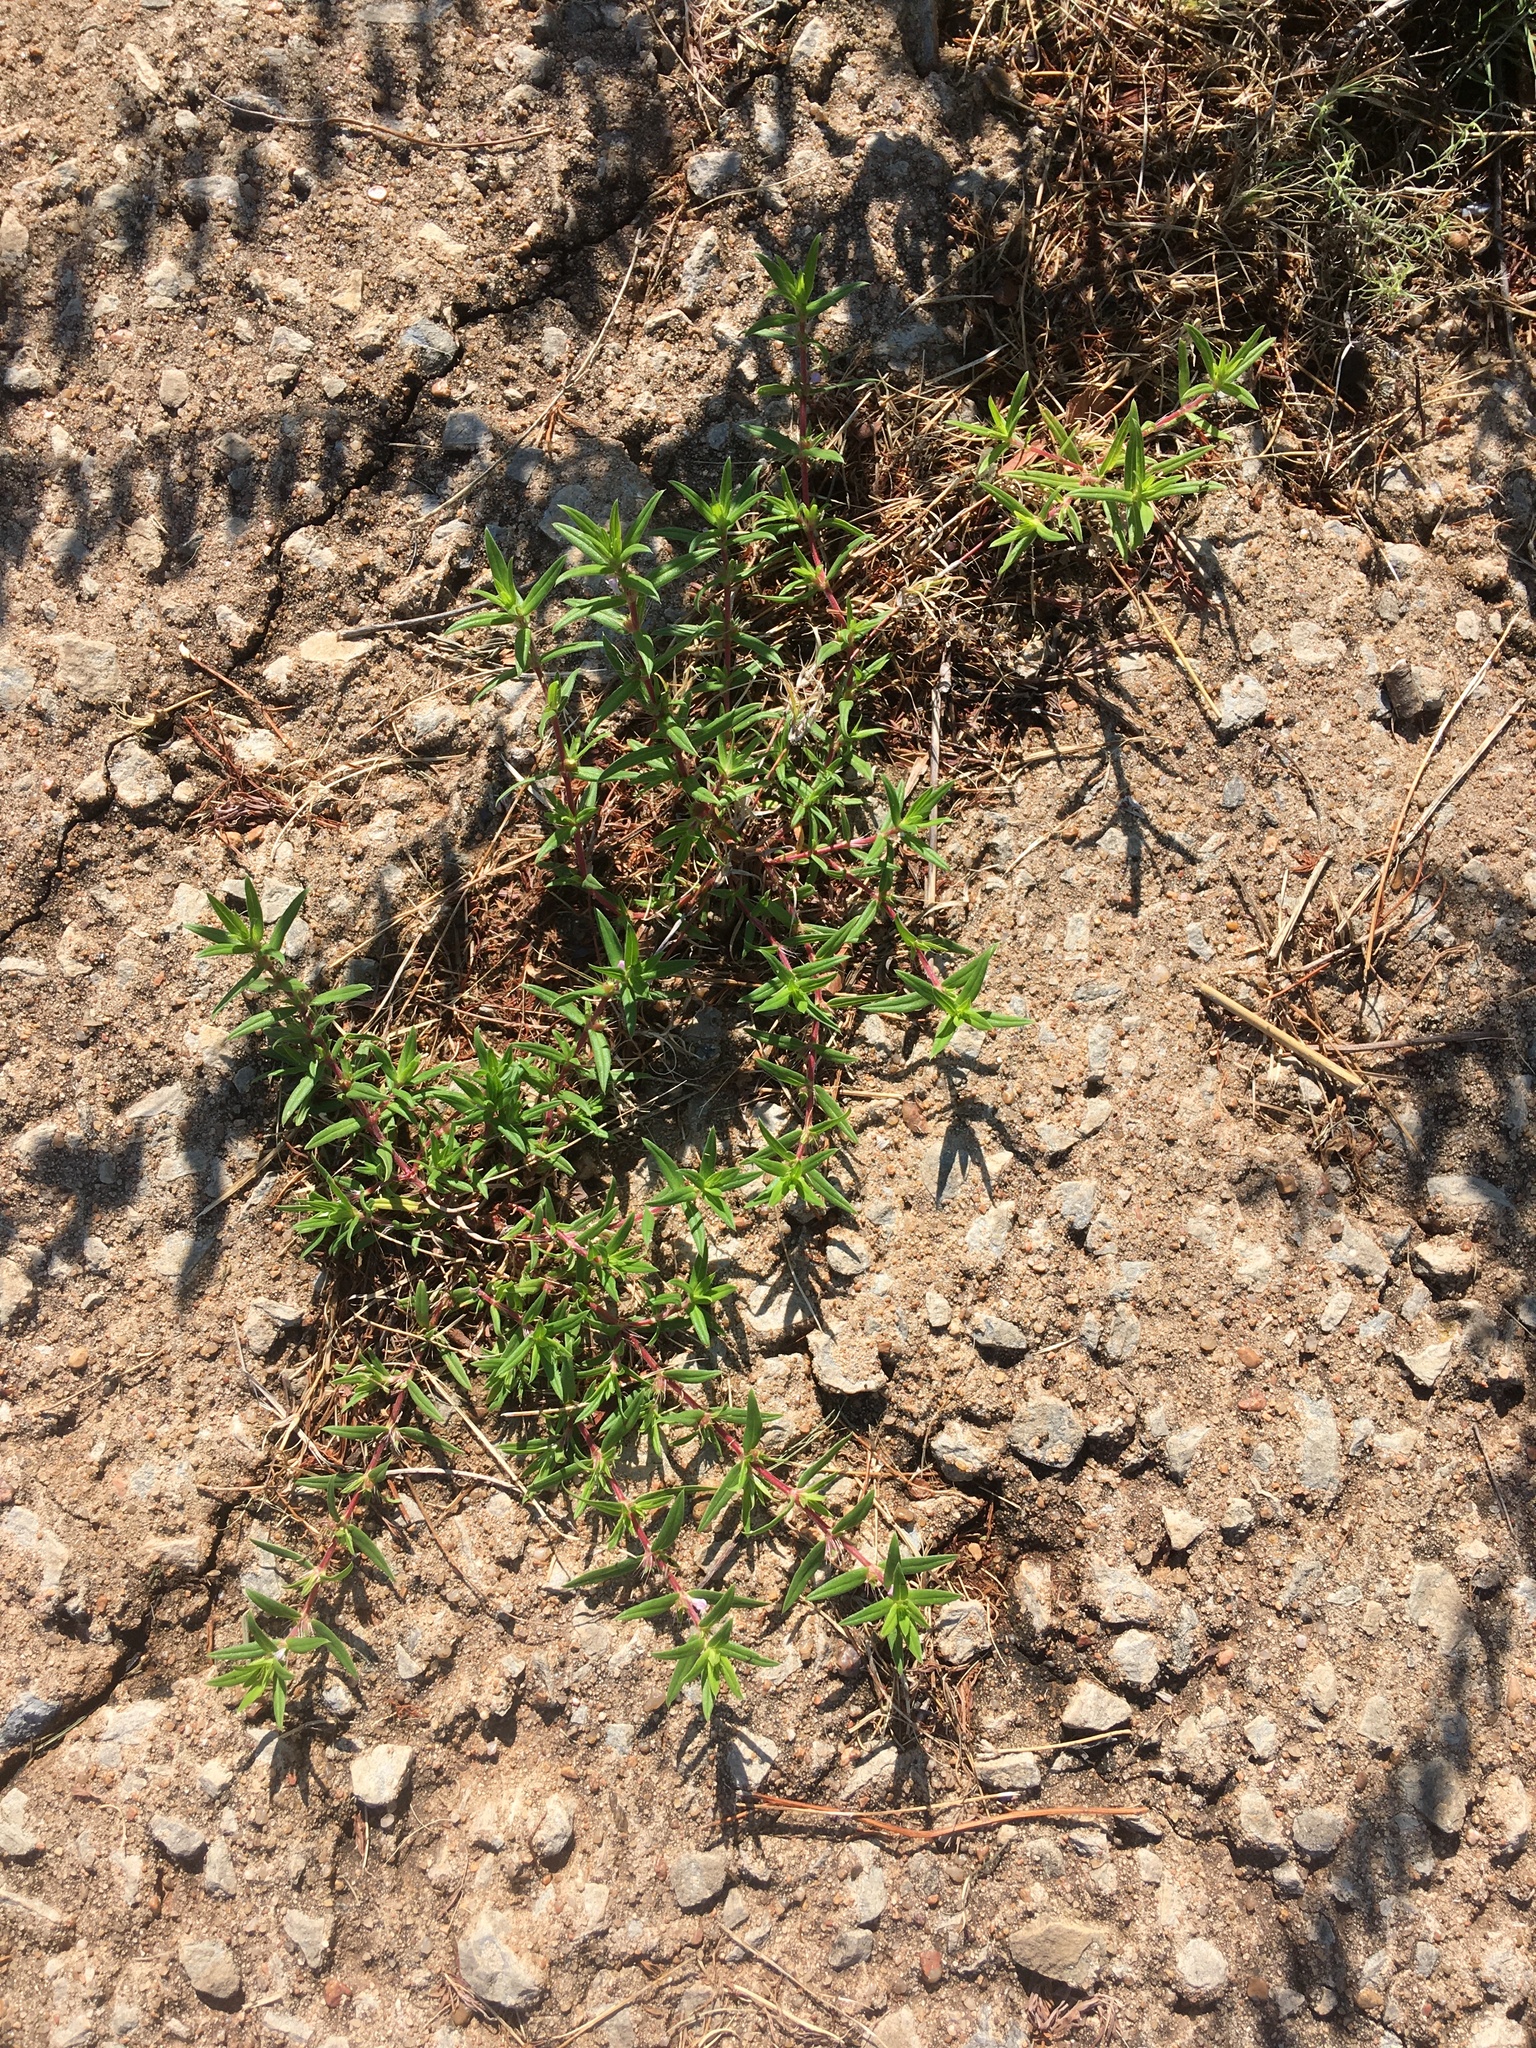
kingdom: Plantae
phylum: Tracheophyta
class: Magnoliopsida
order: Gentianales
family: Rubiaceae
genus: Hexasepalum
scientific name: Hexasepalum teres
